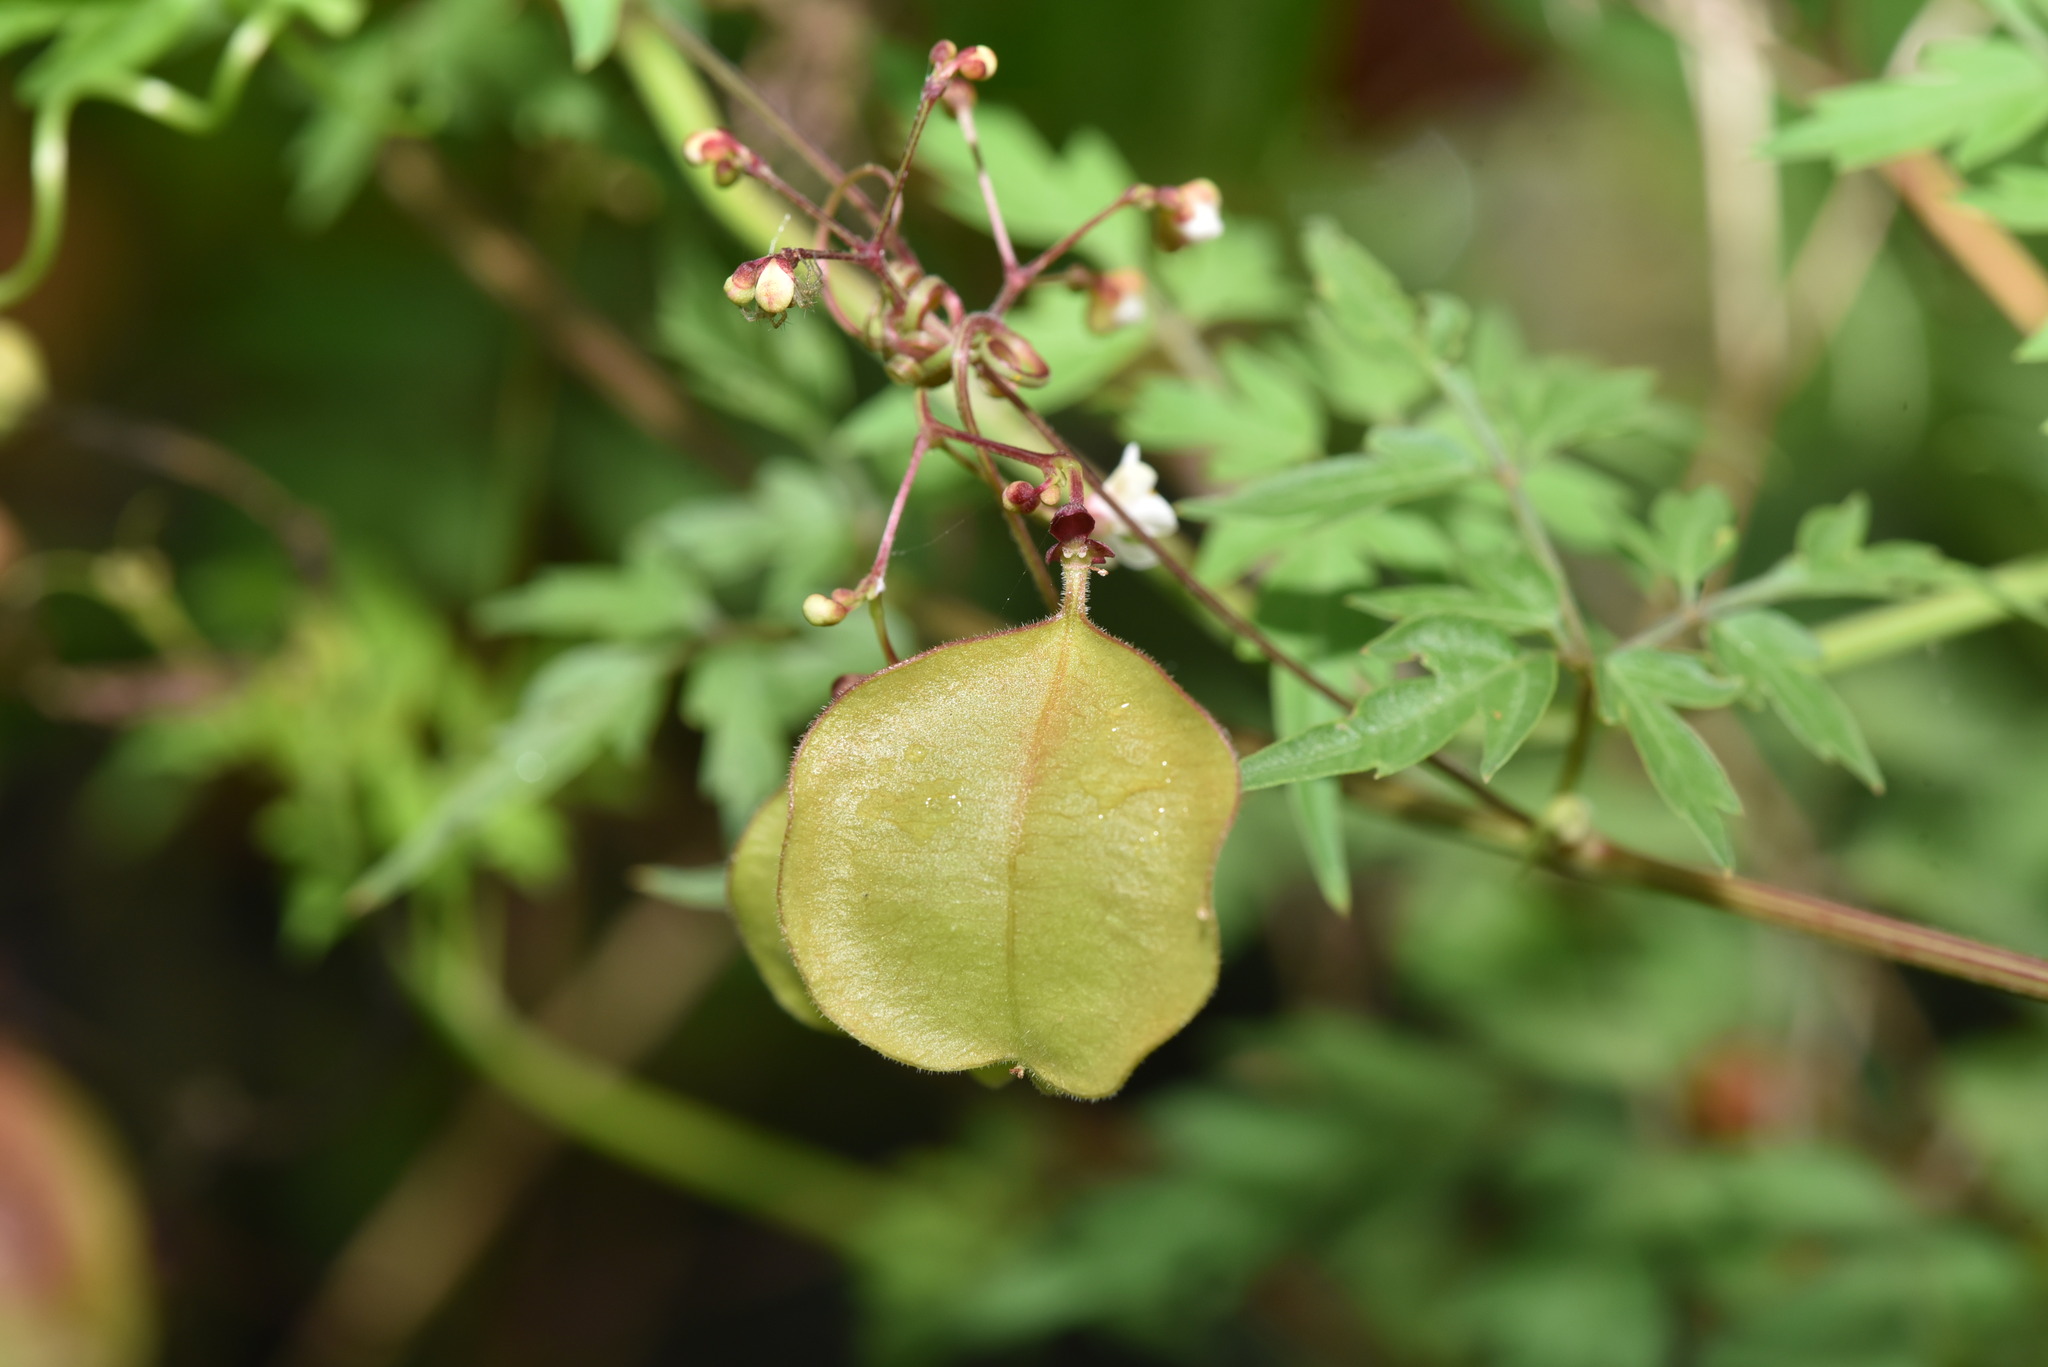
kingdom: Plantae
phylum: Tracheophyta
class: Magnoliopsida
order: Sapindales
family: Sapindaceae
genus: Cardiospermum
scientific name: Cardiospermum halicacabum
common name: Balloon vine
